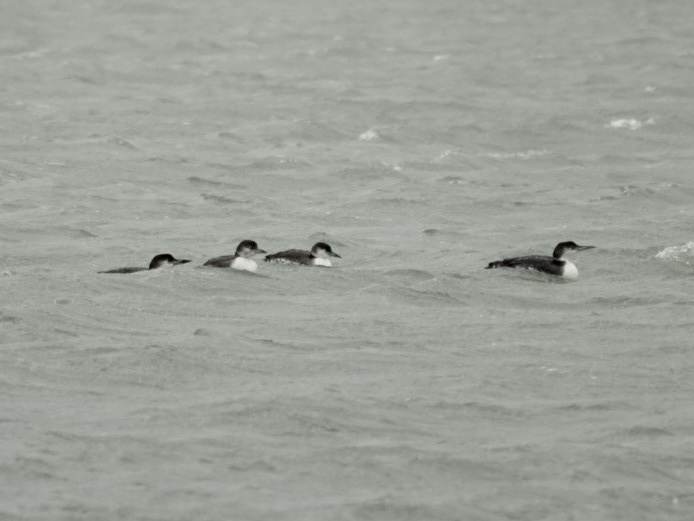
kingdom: Animalia
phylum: Chordata
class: Aves
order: Gaviiformes
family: Gaviidae
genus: Gavia
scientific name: Gavia immer
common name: Common loon
